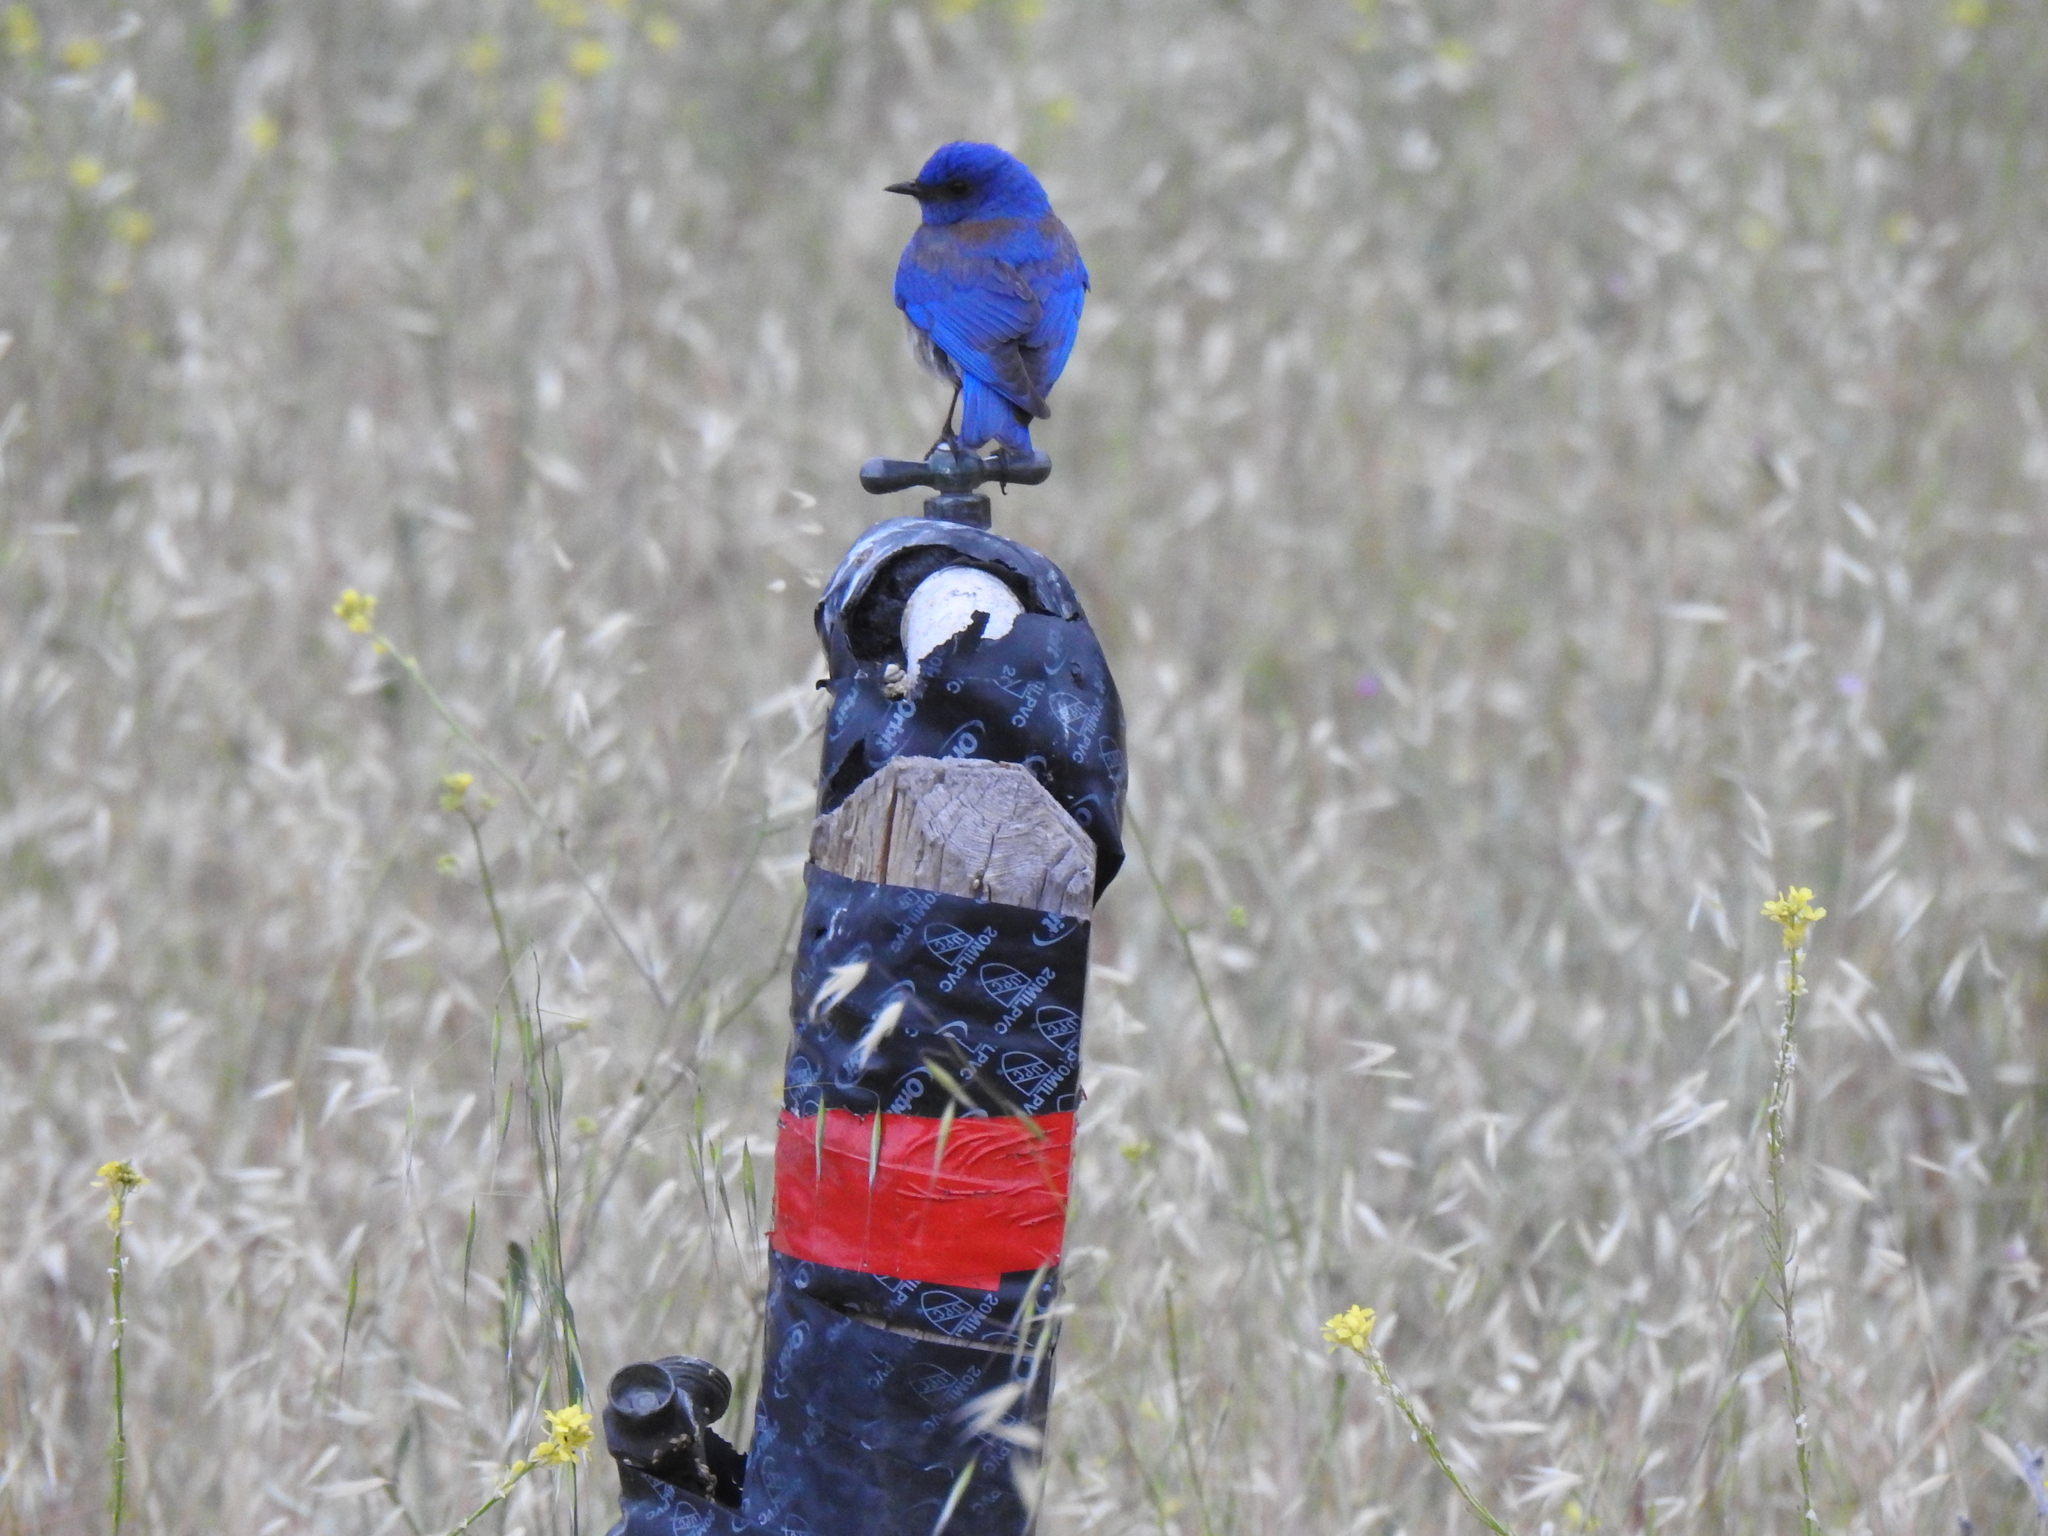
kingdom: Animalia
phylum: Chordata
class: Aves
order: Passeriformes
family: Turdidae
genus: Sialia
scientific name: Sialia mexicana
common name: Western bluebird
